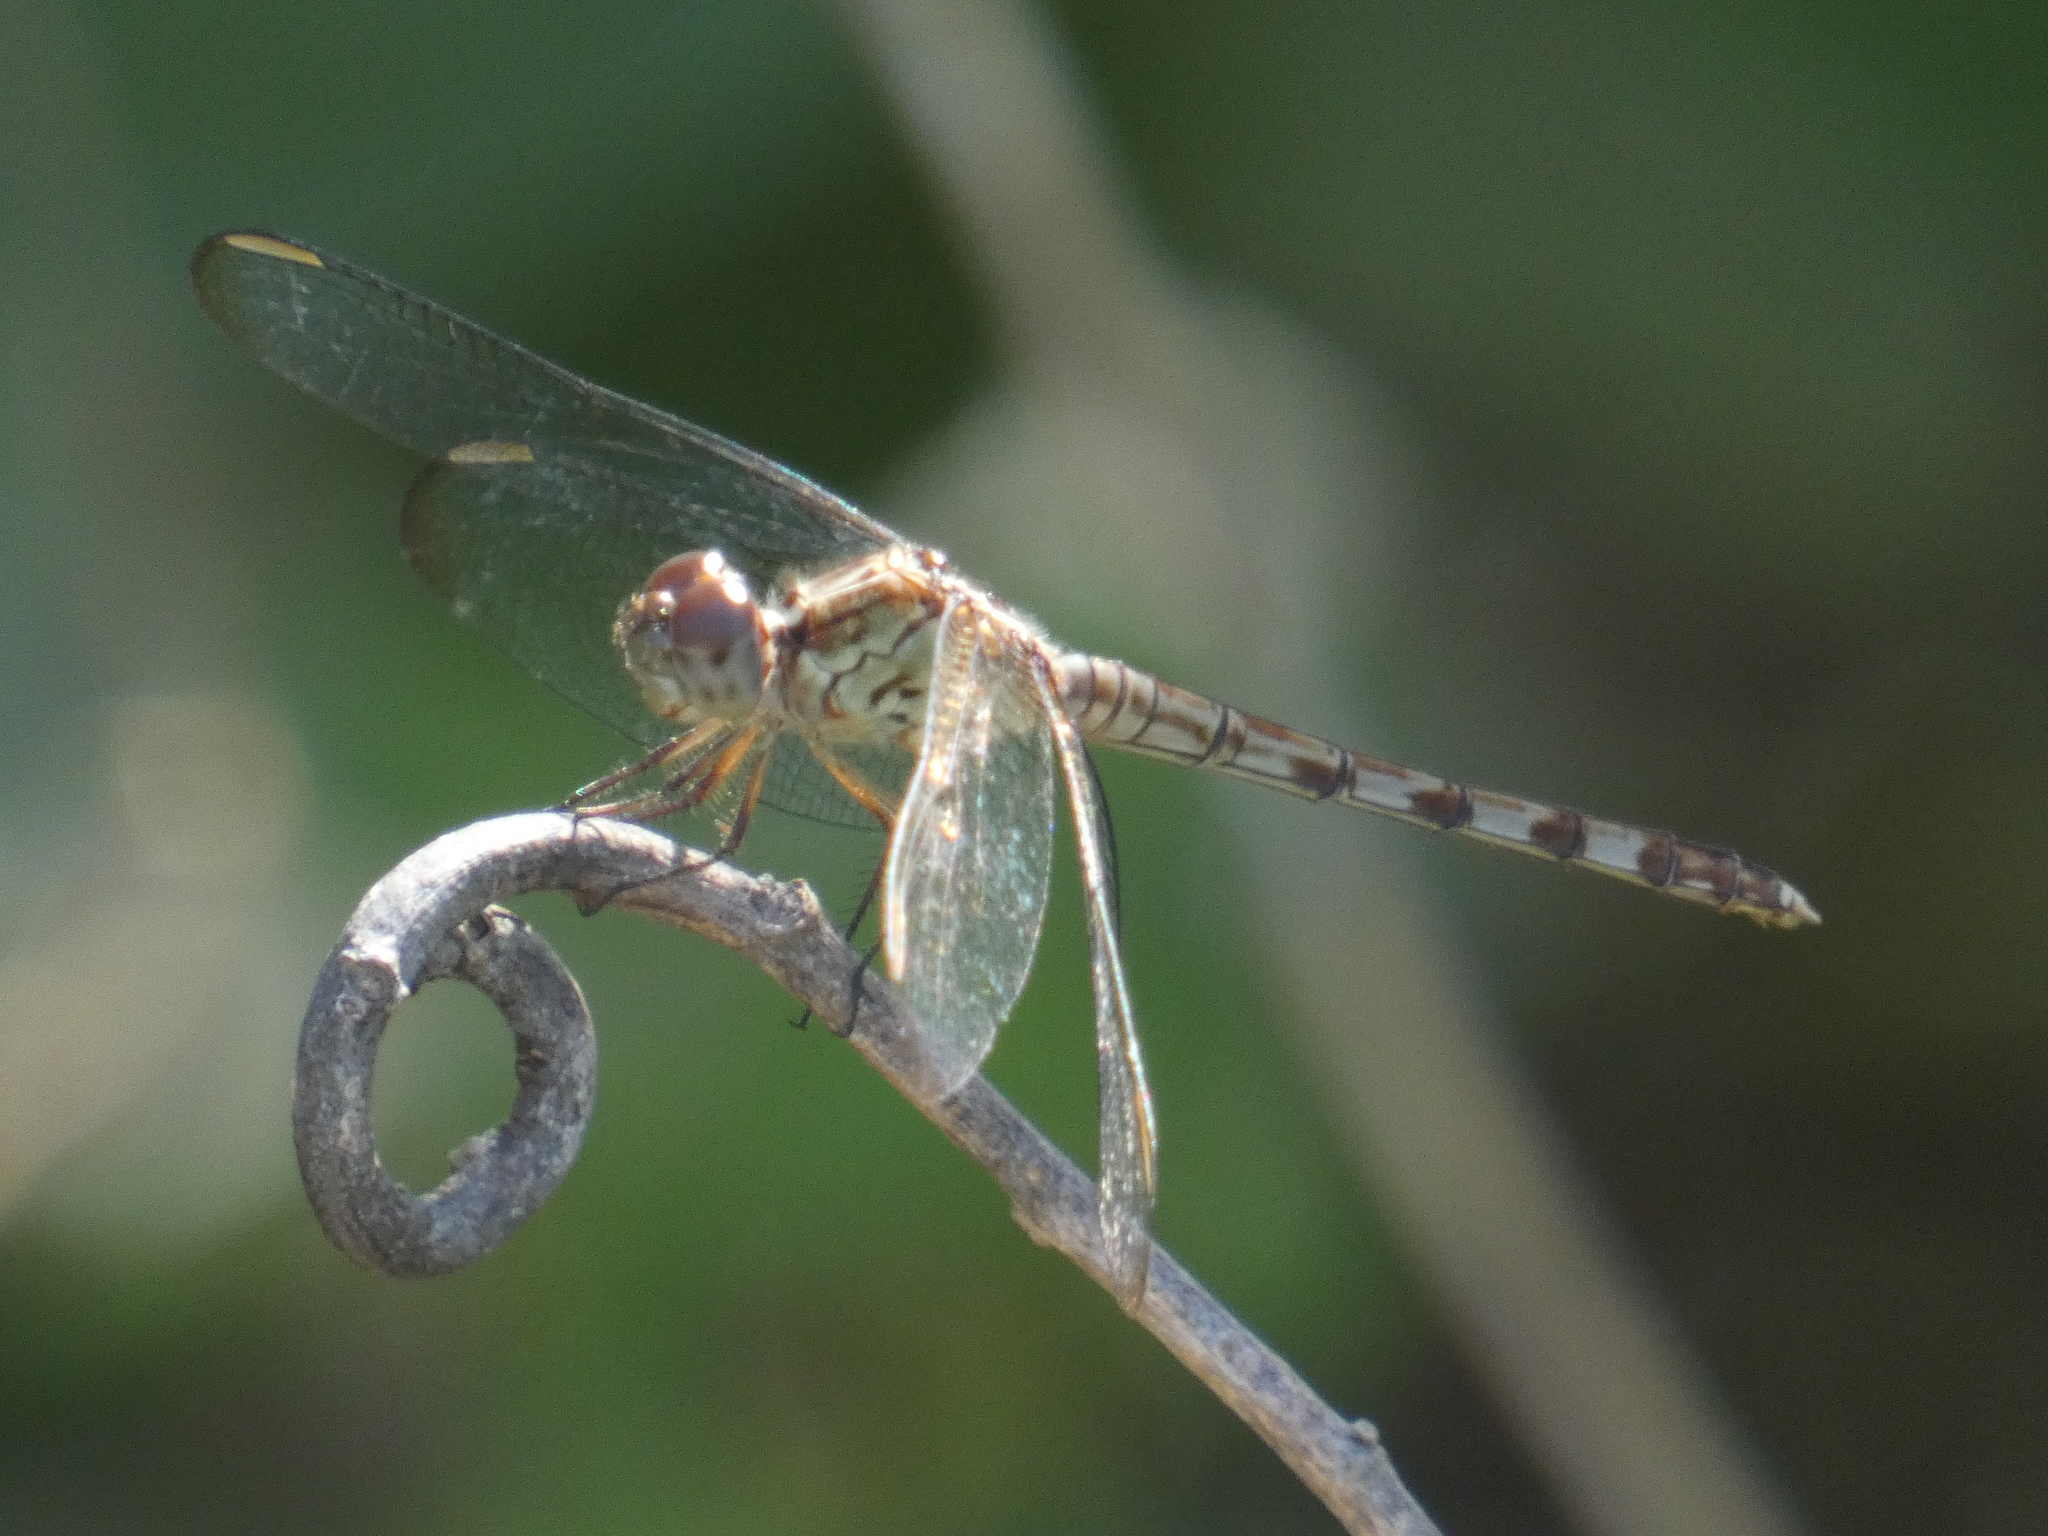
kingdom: Animalia
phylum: Arthropoda
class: Insecta
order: Odonata
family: Libellulidae
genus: Erythrodiplax
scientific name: Erythrodiplax umbrata
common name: Band-winged dragonlet
